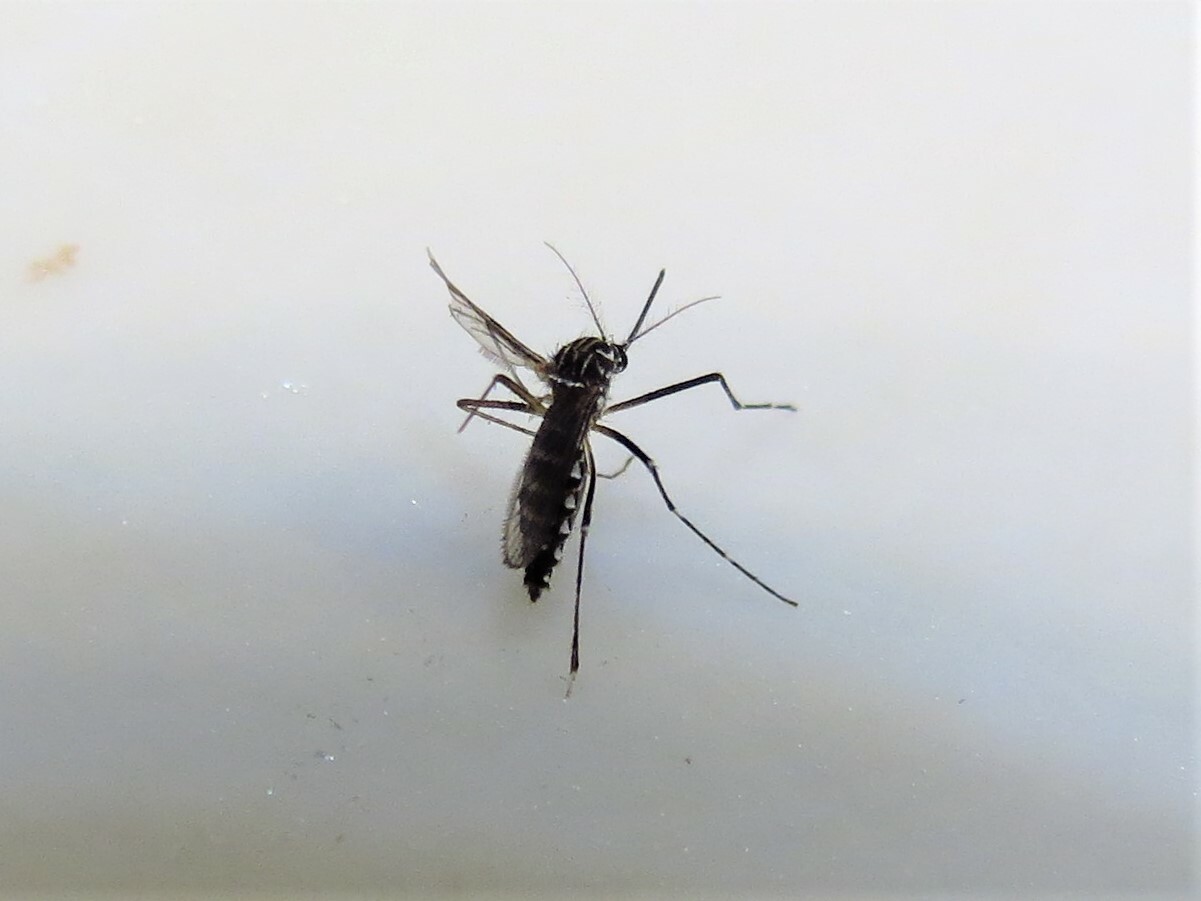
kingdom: Animalia
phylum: Arthropoda
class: Insecta
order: Diptera
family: Culicidae
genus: Aedes
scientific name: Aedes aegypti
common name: Yellow fever mosquito
